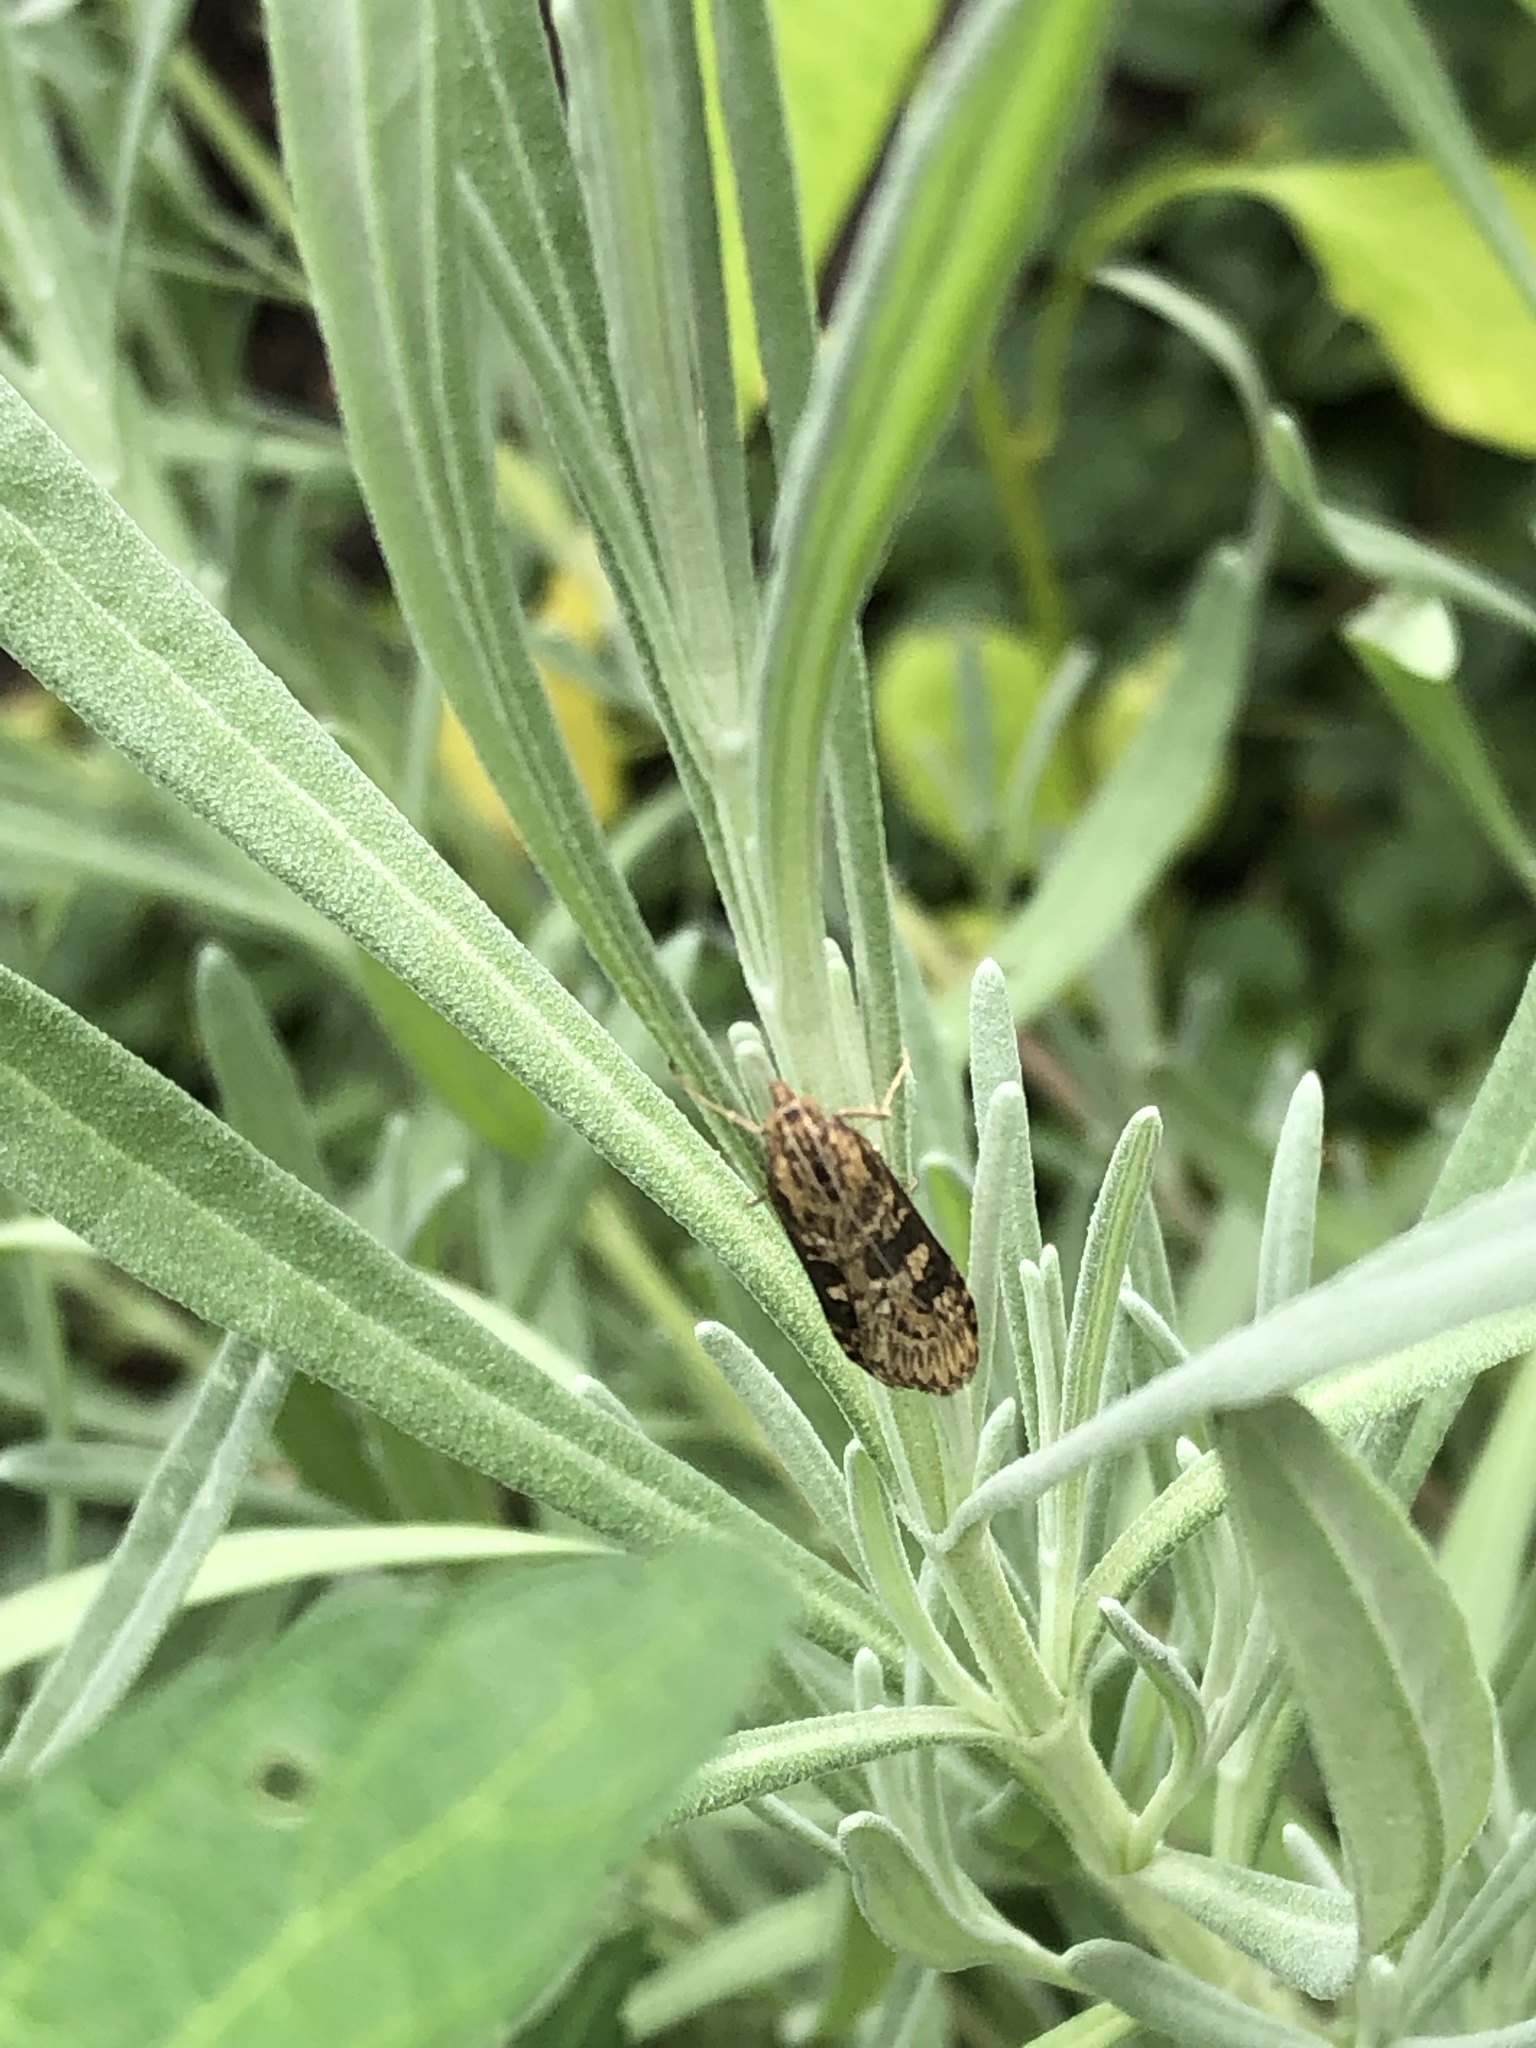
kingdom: Animalia
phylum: Arthropoda
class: Insecta
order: Lepidoptera
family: Crambidae
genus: Nomophila
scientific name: Nomophila nearctica
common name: American rush veneer
